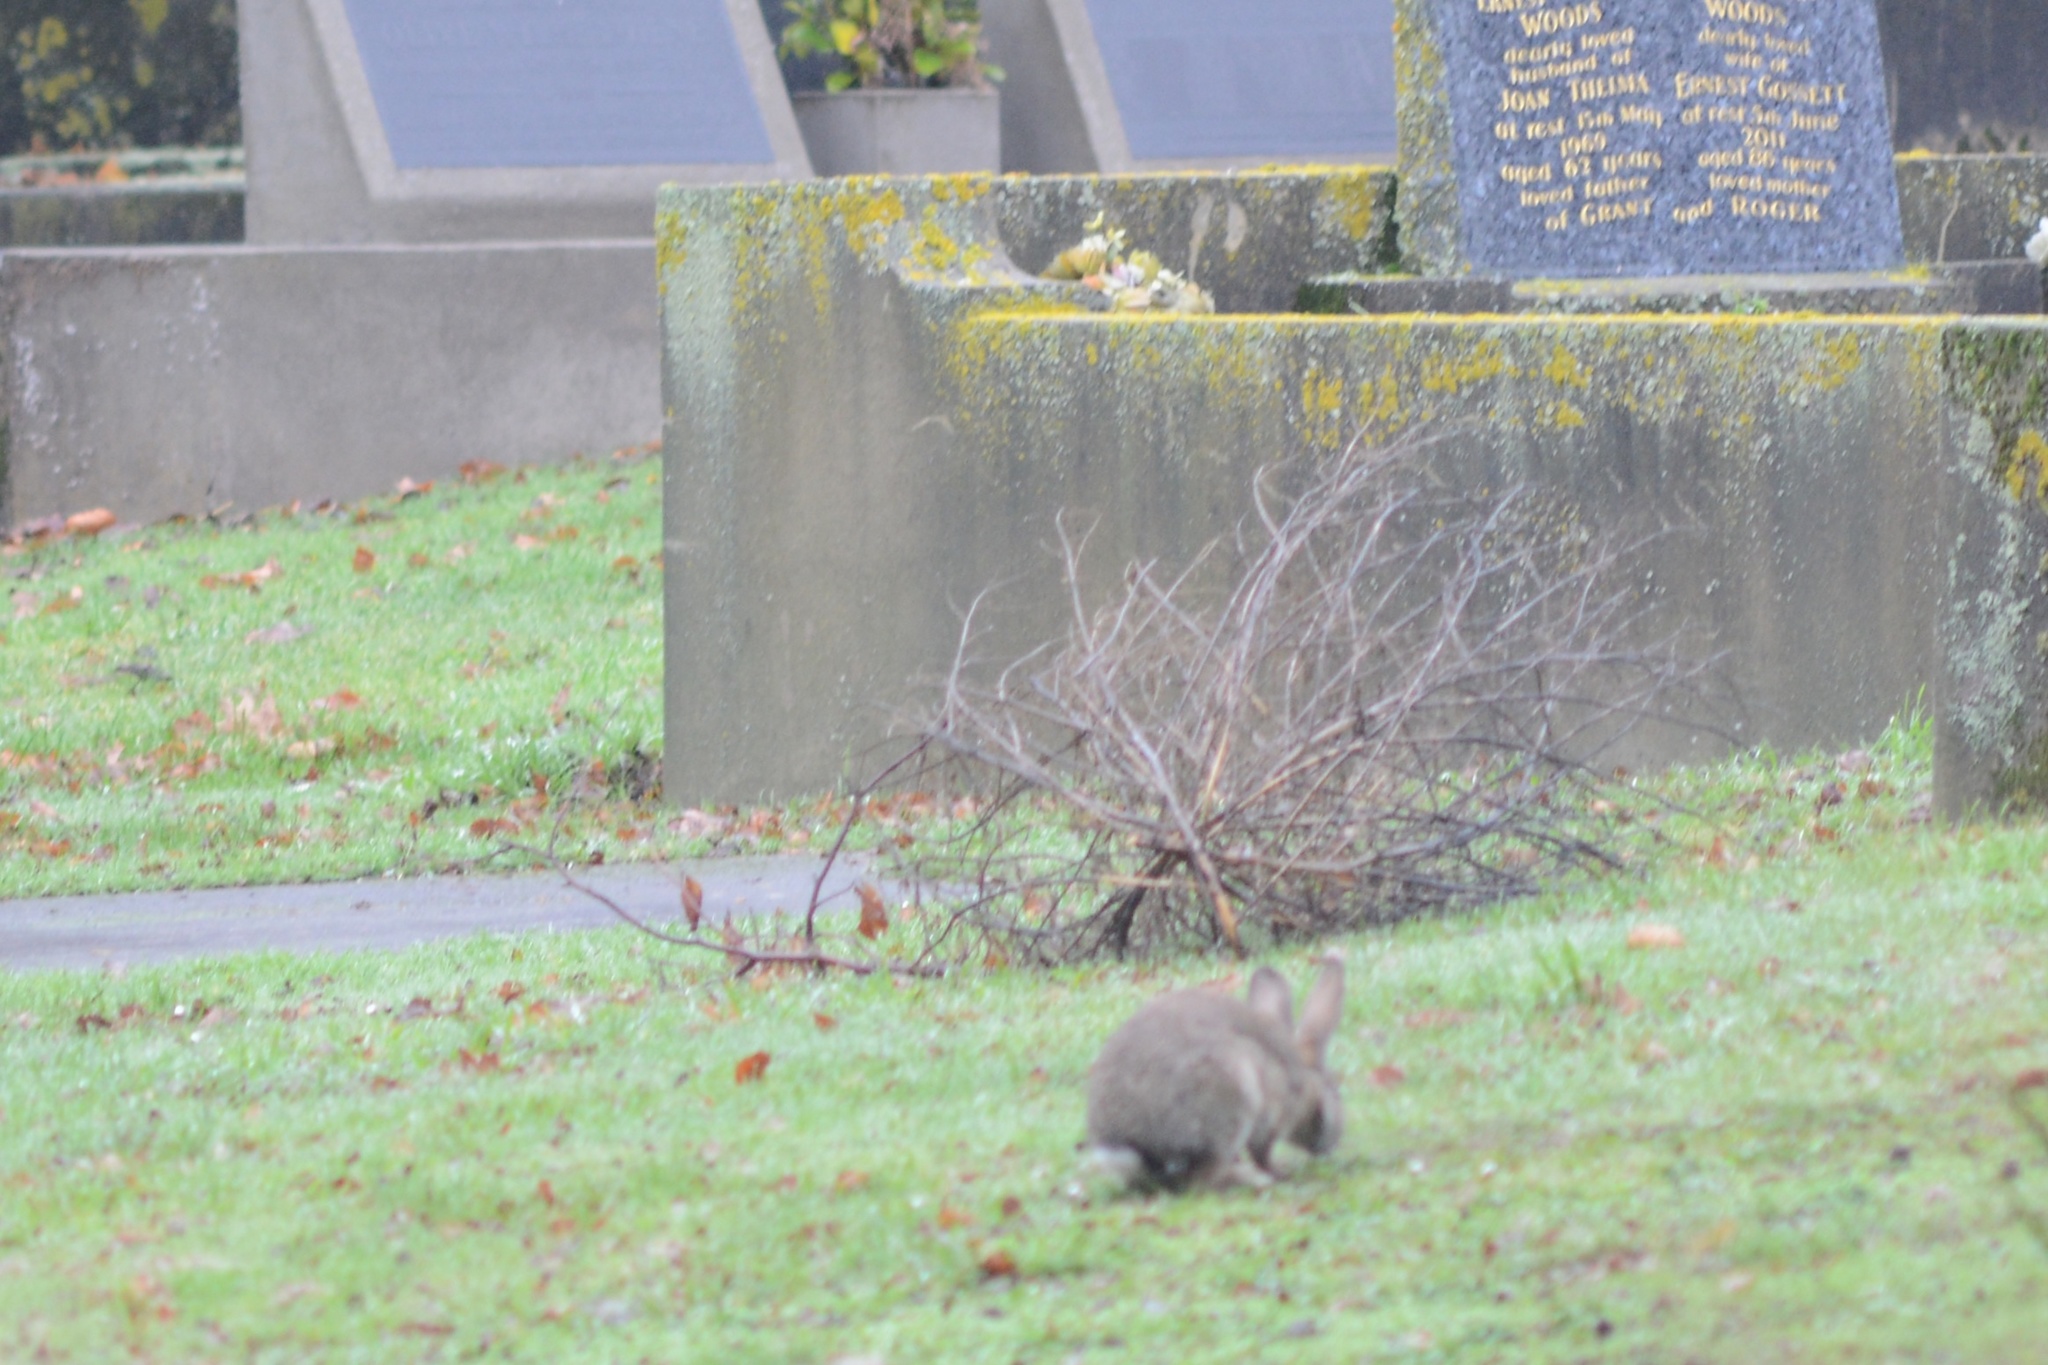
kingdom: Animalia
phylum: Chordata
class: Mammalia
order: Lagomorpha
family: Leporidae
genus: Oryctolagus
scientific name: Oryctolagus cuniculus
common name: European rabbit
